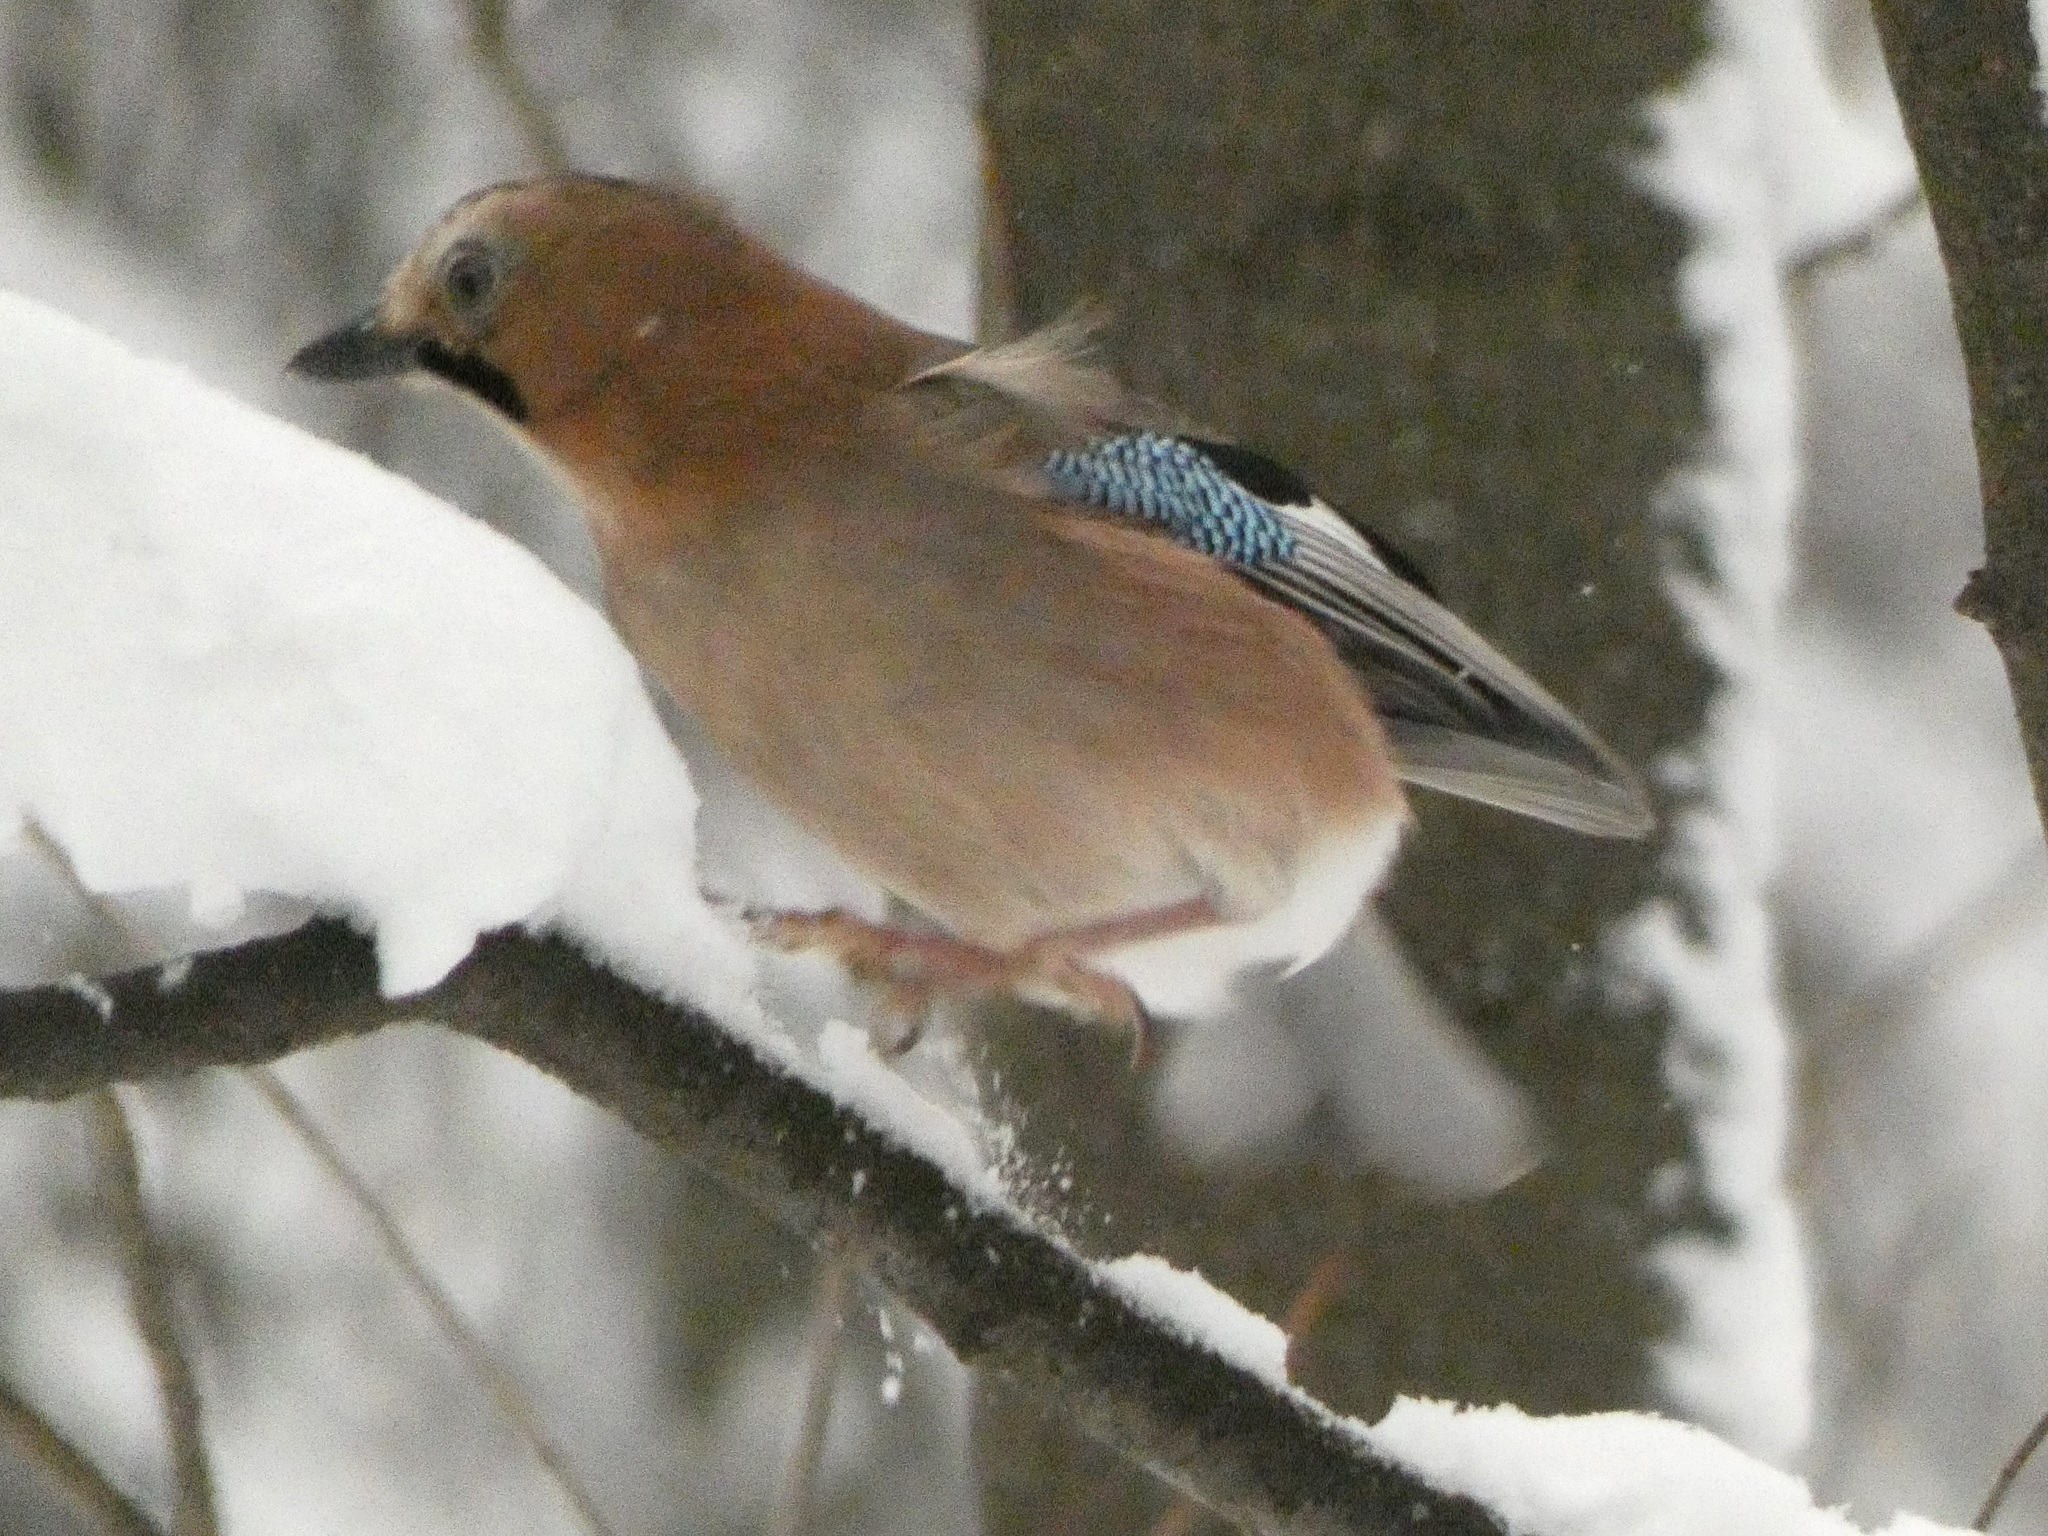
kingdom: Animalia
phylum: Chordata
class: Aves
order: Passeriformes
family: Corvidae
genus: Garrulus
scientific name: Garrulus glandarius
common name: Eurasian jay
